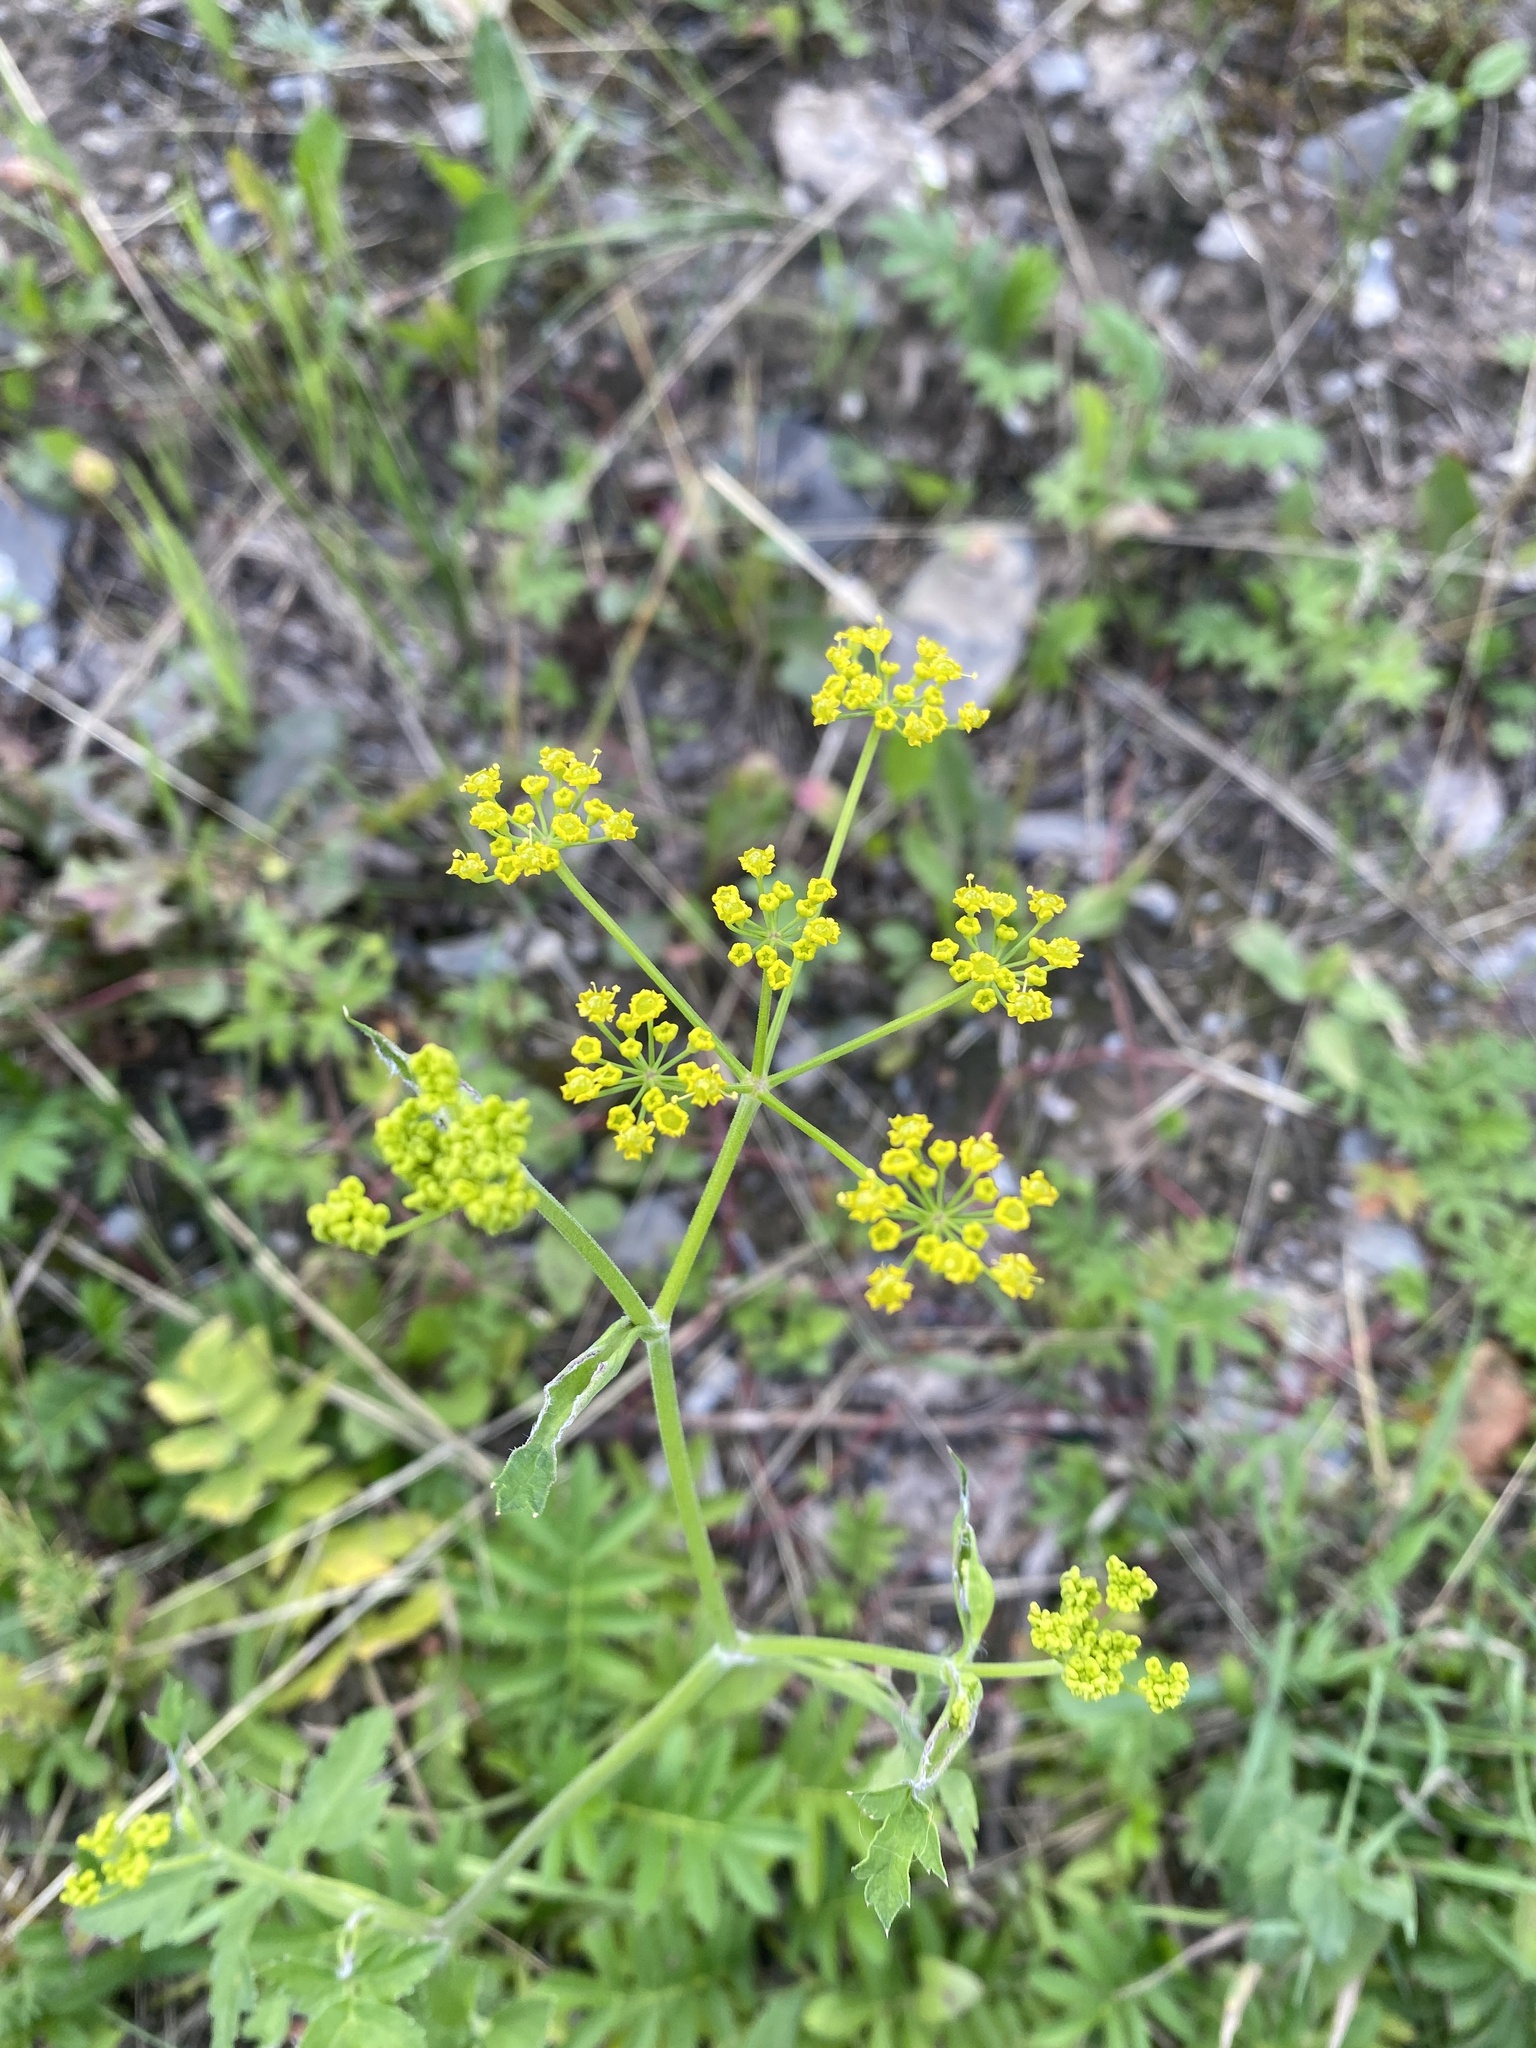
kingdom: Plantae
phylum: Tracheophyta
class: Magnoliopsida
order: Apiales
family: Apiaceae
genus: Pastinaca
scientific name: Pastinaca sativa
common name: Wild parsnip
